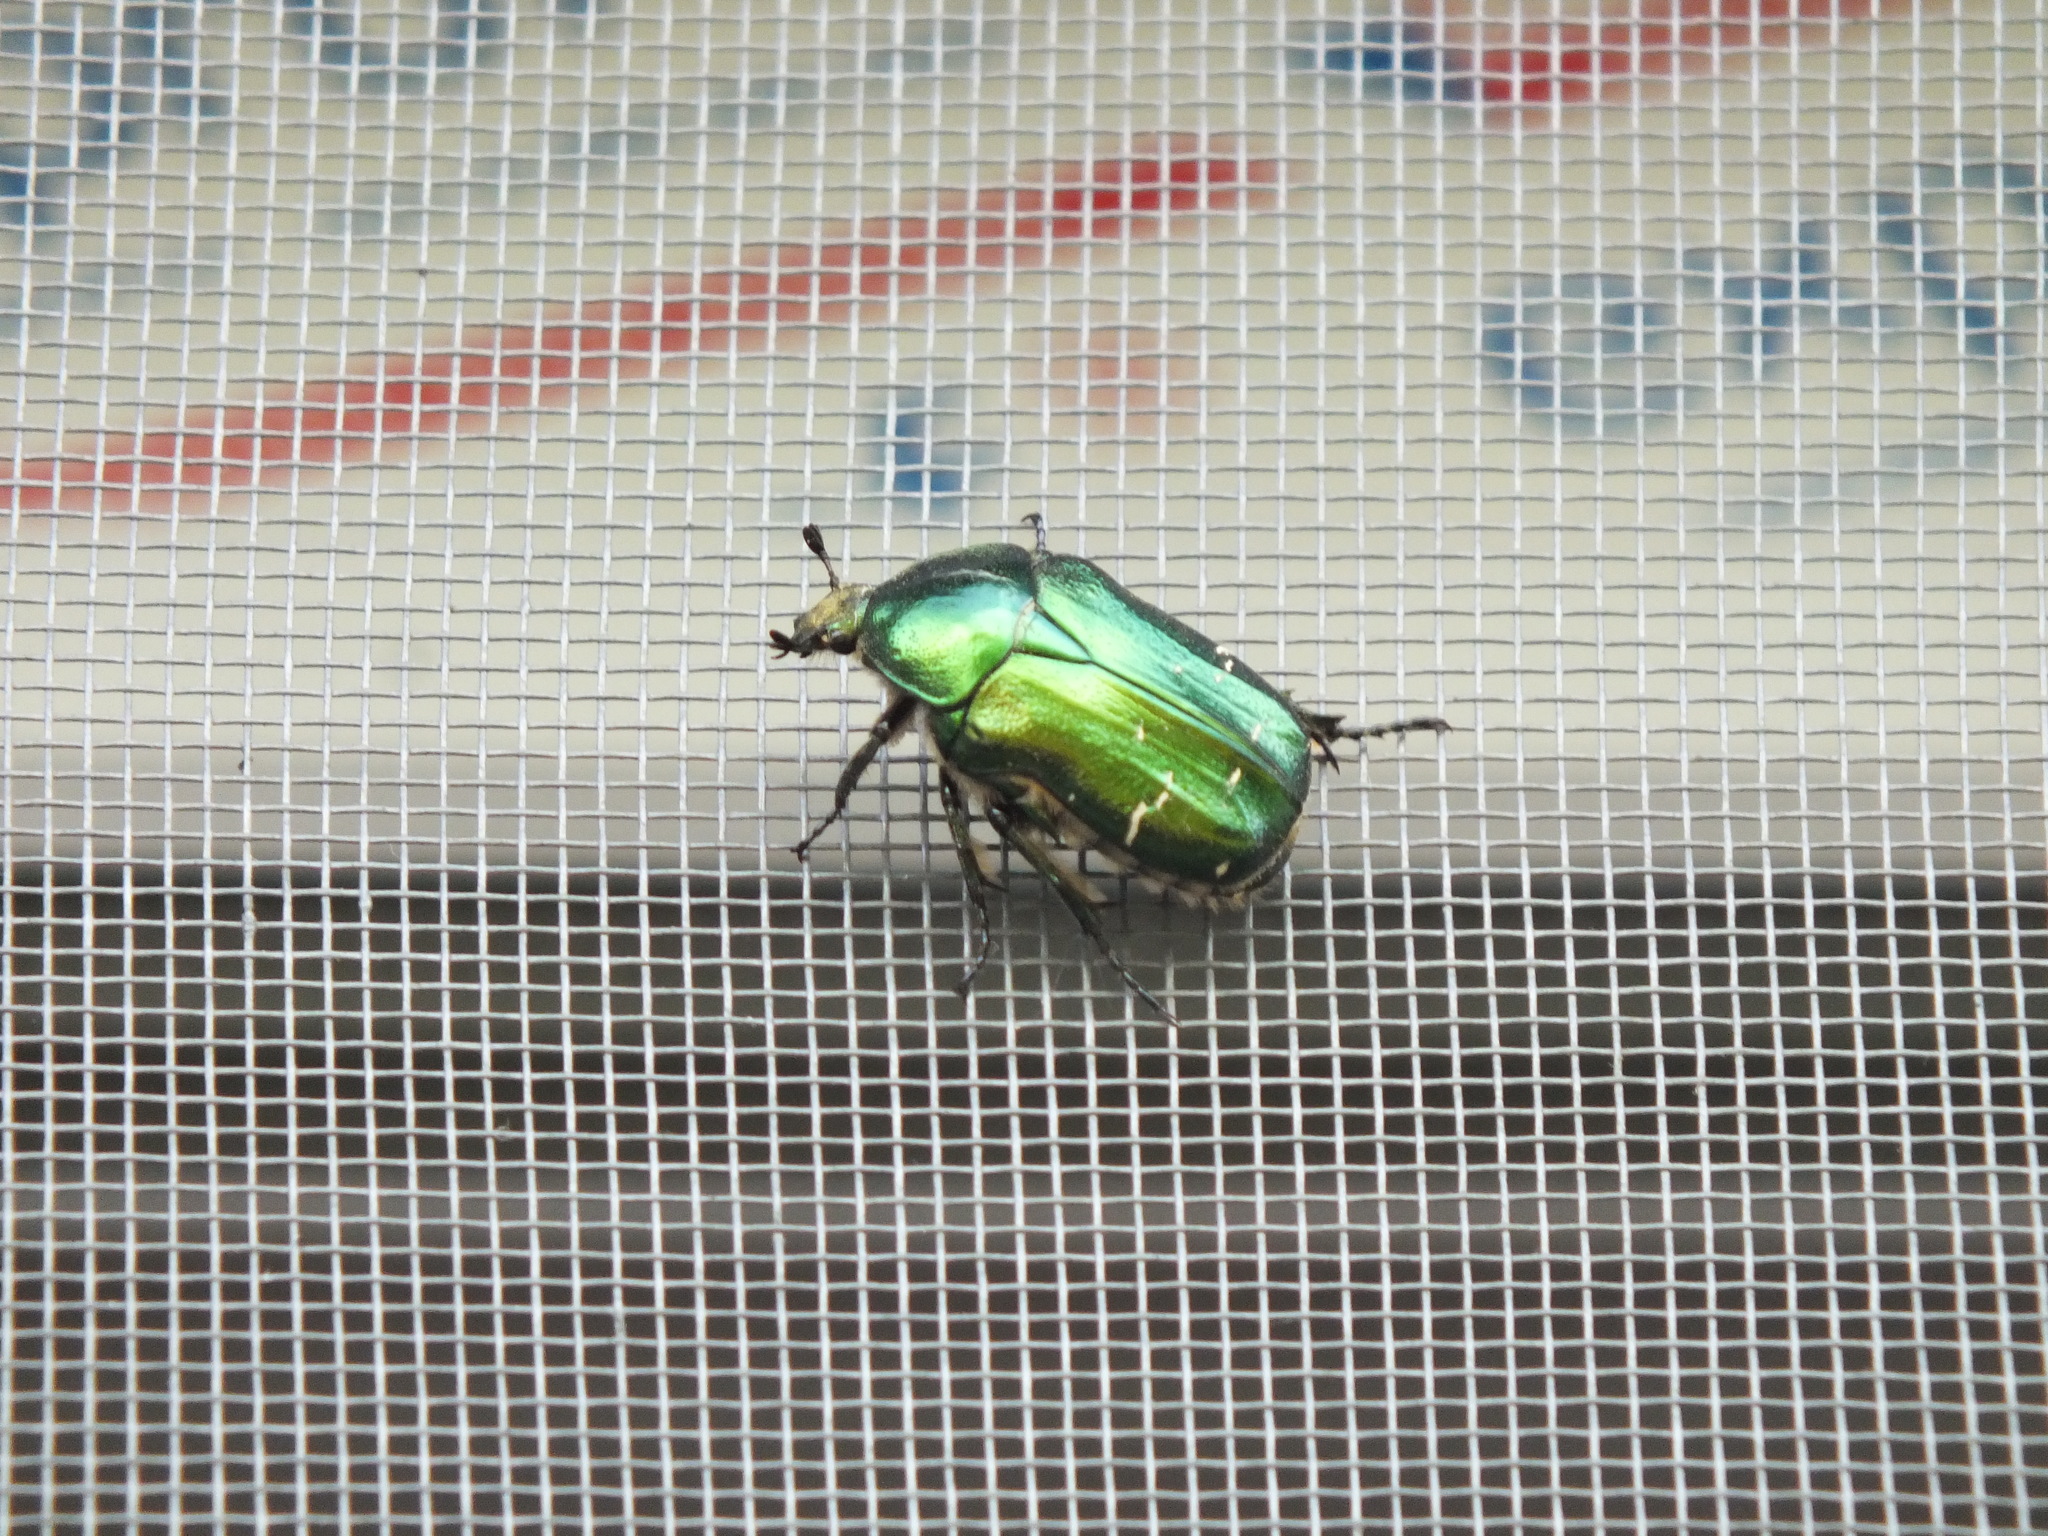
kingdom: Animalia
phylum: Arthropoda
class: Insecta
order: Coleoptera
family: Scarabaeidae
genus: Cetonia
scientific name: Cetonia aurata
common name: Rose chafer
